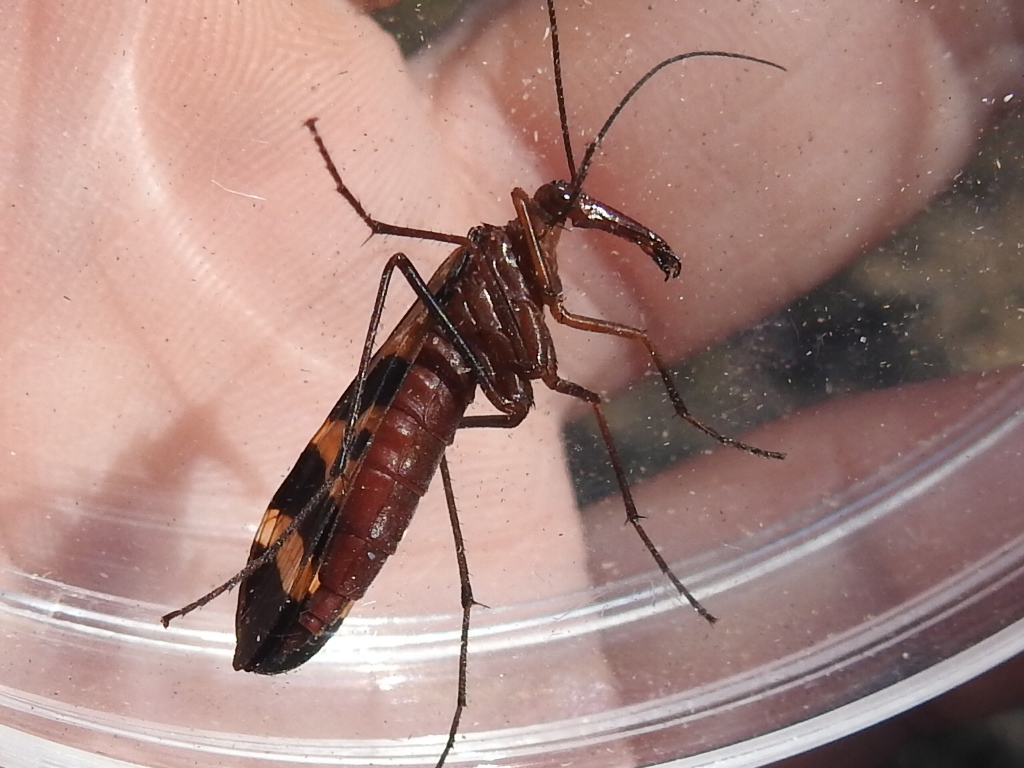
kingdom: Animalia
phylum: Arthropoda
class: Insecta
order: Mecoptera
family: Panorpidae
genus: Panorpa
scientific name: Panorpa nuptialis
